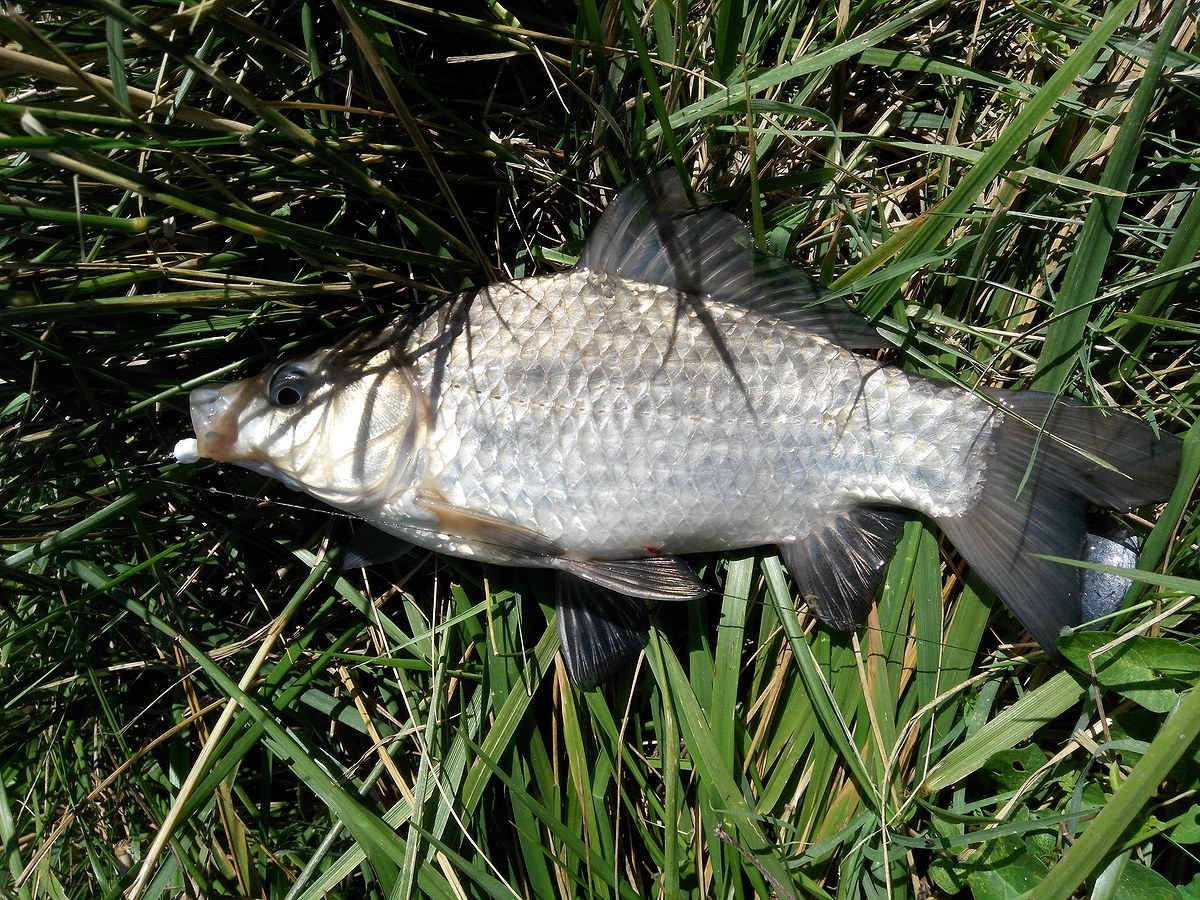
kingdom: Animalia
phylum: Chordata
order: Cypriniformes
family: Cyprinidae
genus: Carassius
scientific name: Carassius gibelio
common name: Prussian carp
